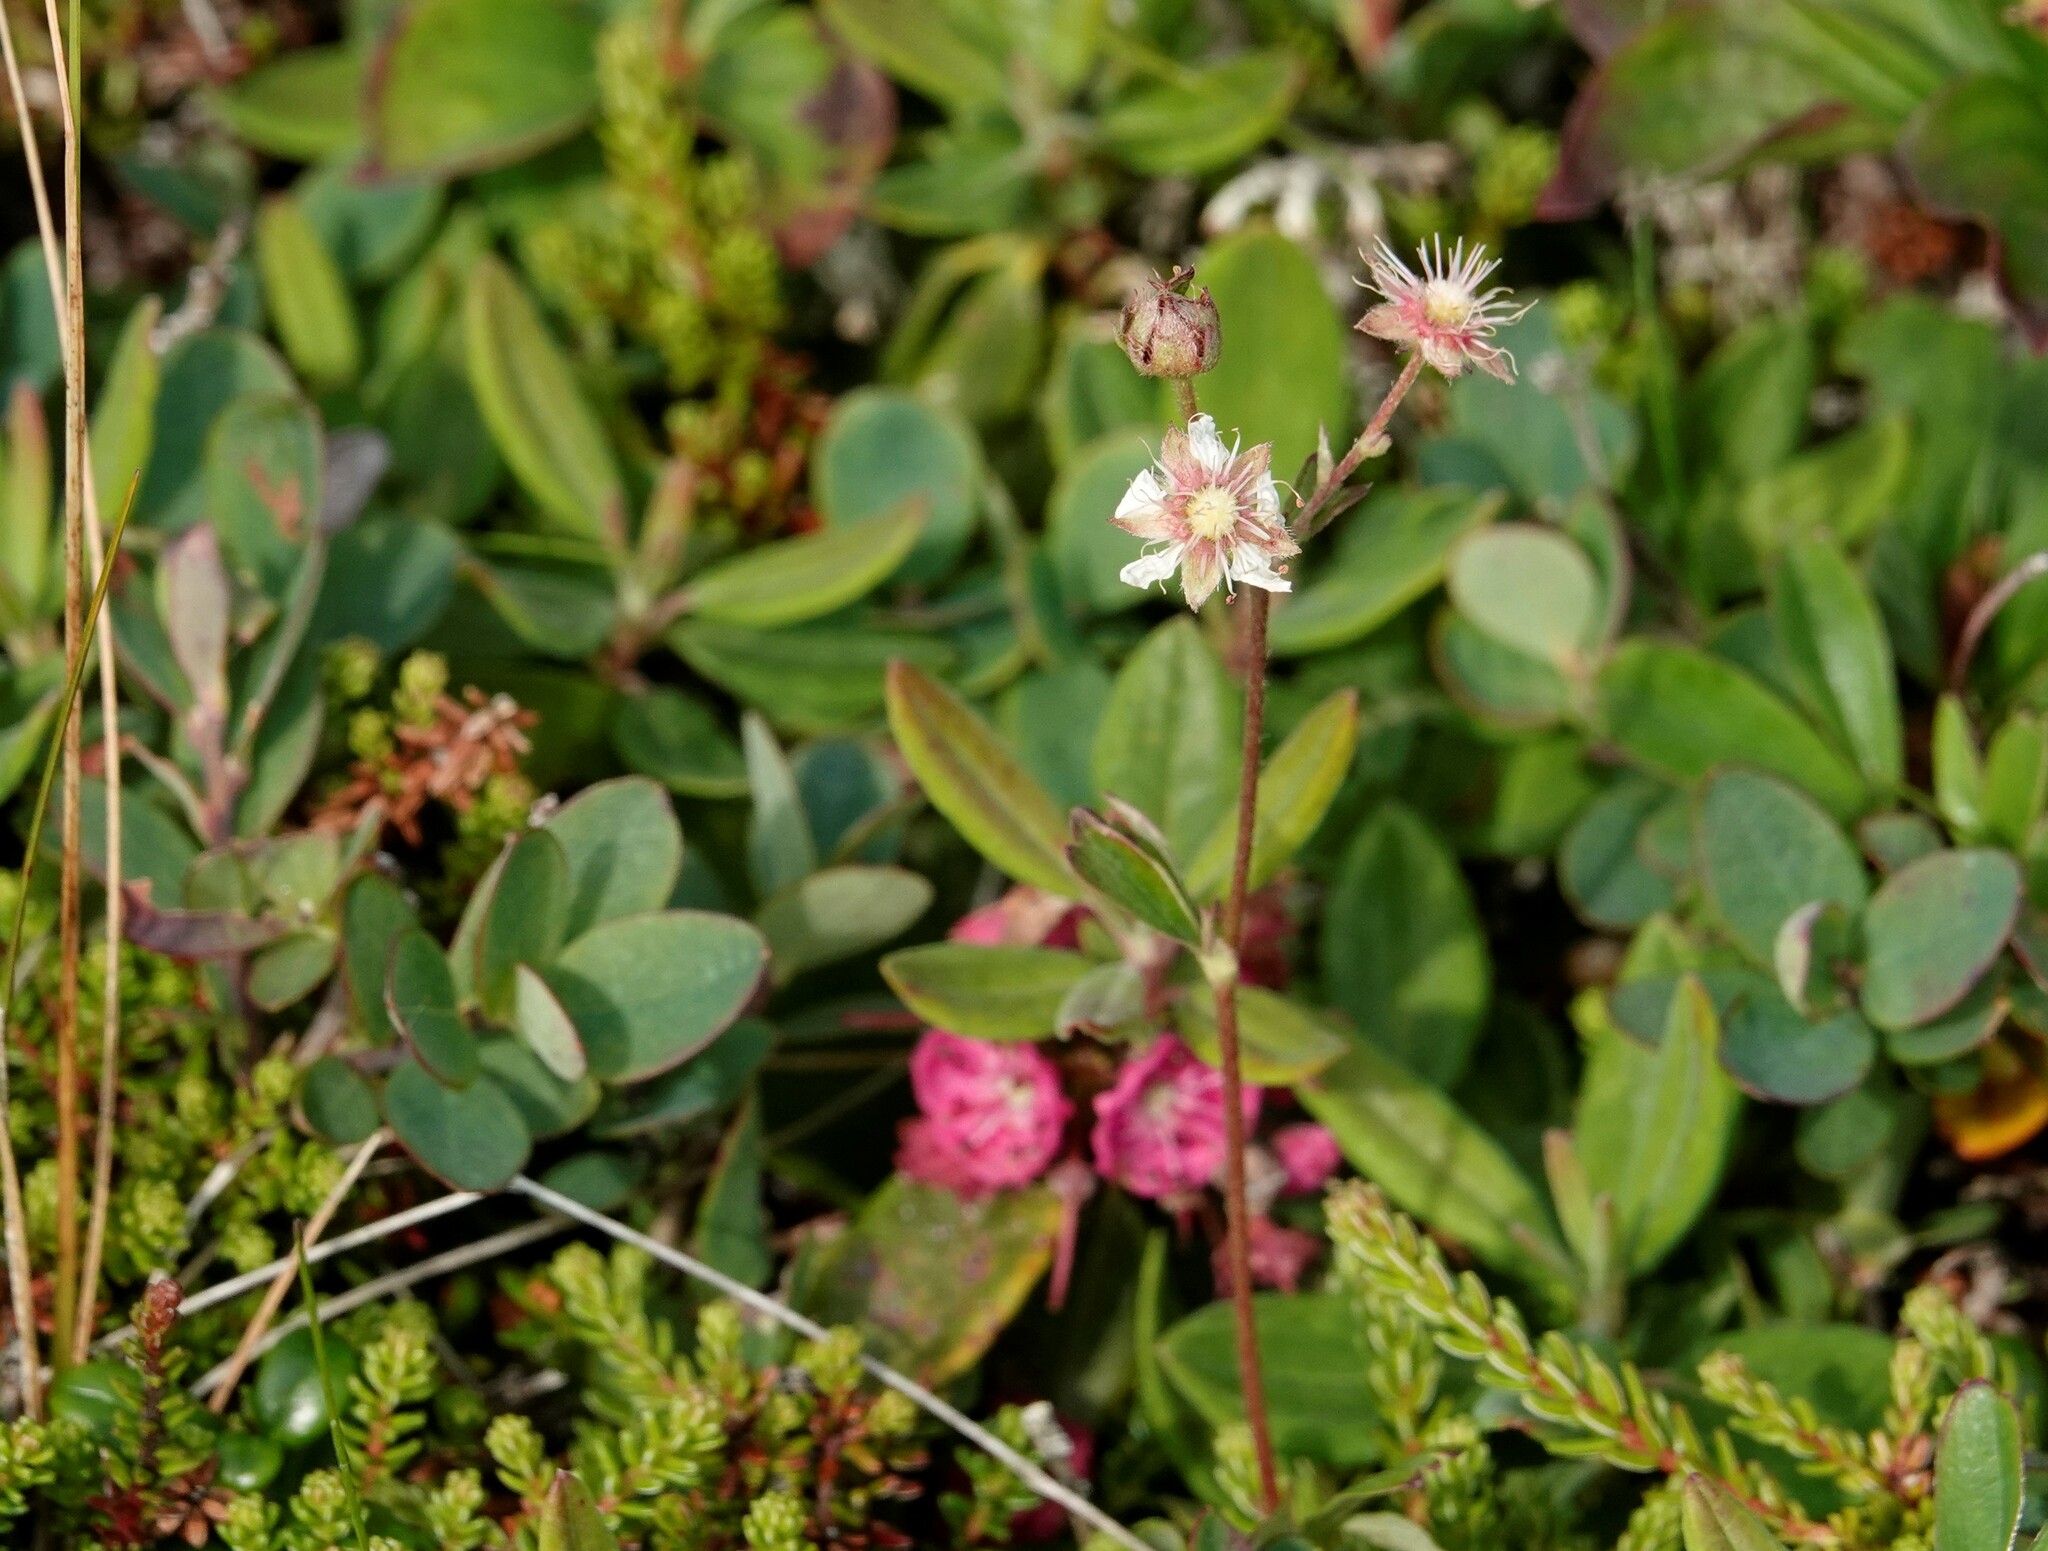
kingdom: Plantae
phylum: Tracheophyta
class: Magnoliopsida
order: Rosales
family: Rosaceae
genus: Sibbaldia
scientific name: Sibbaldia tridentata
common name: Three-toothed cinquefoil
